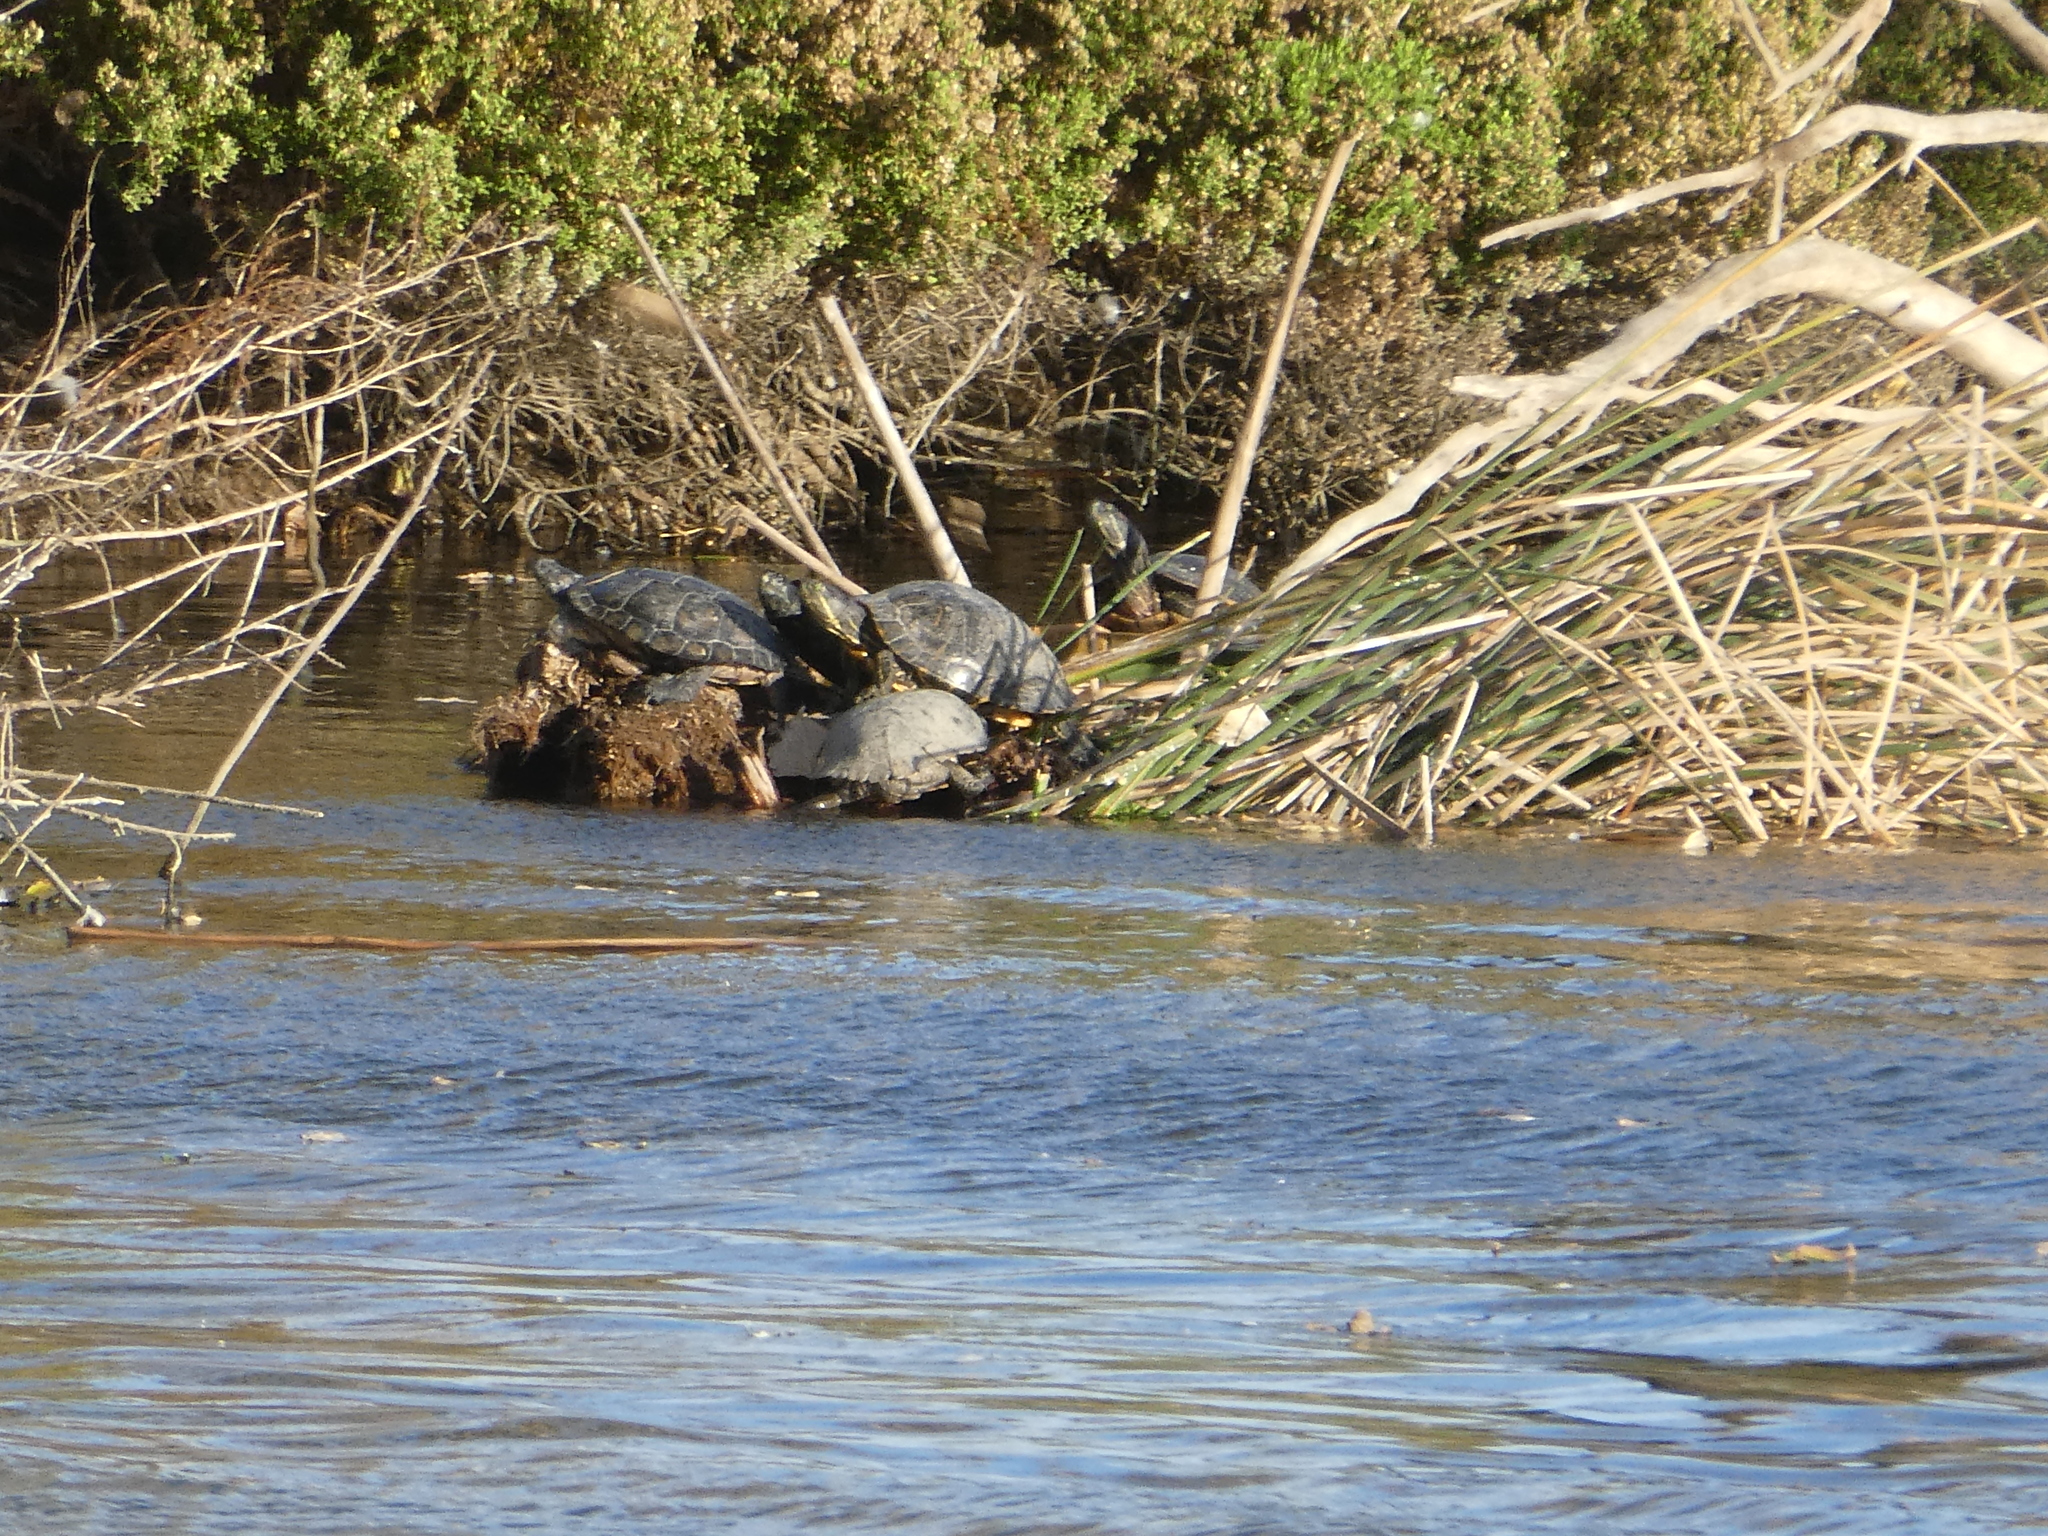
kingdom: Animalia
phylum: Chordata
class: Testudines
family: Emydidae
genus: Trachemys
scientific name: Trachemys scripta
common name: Slider
